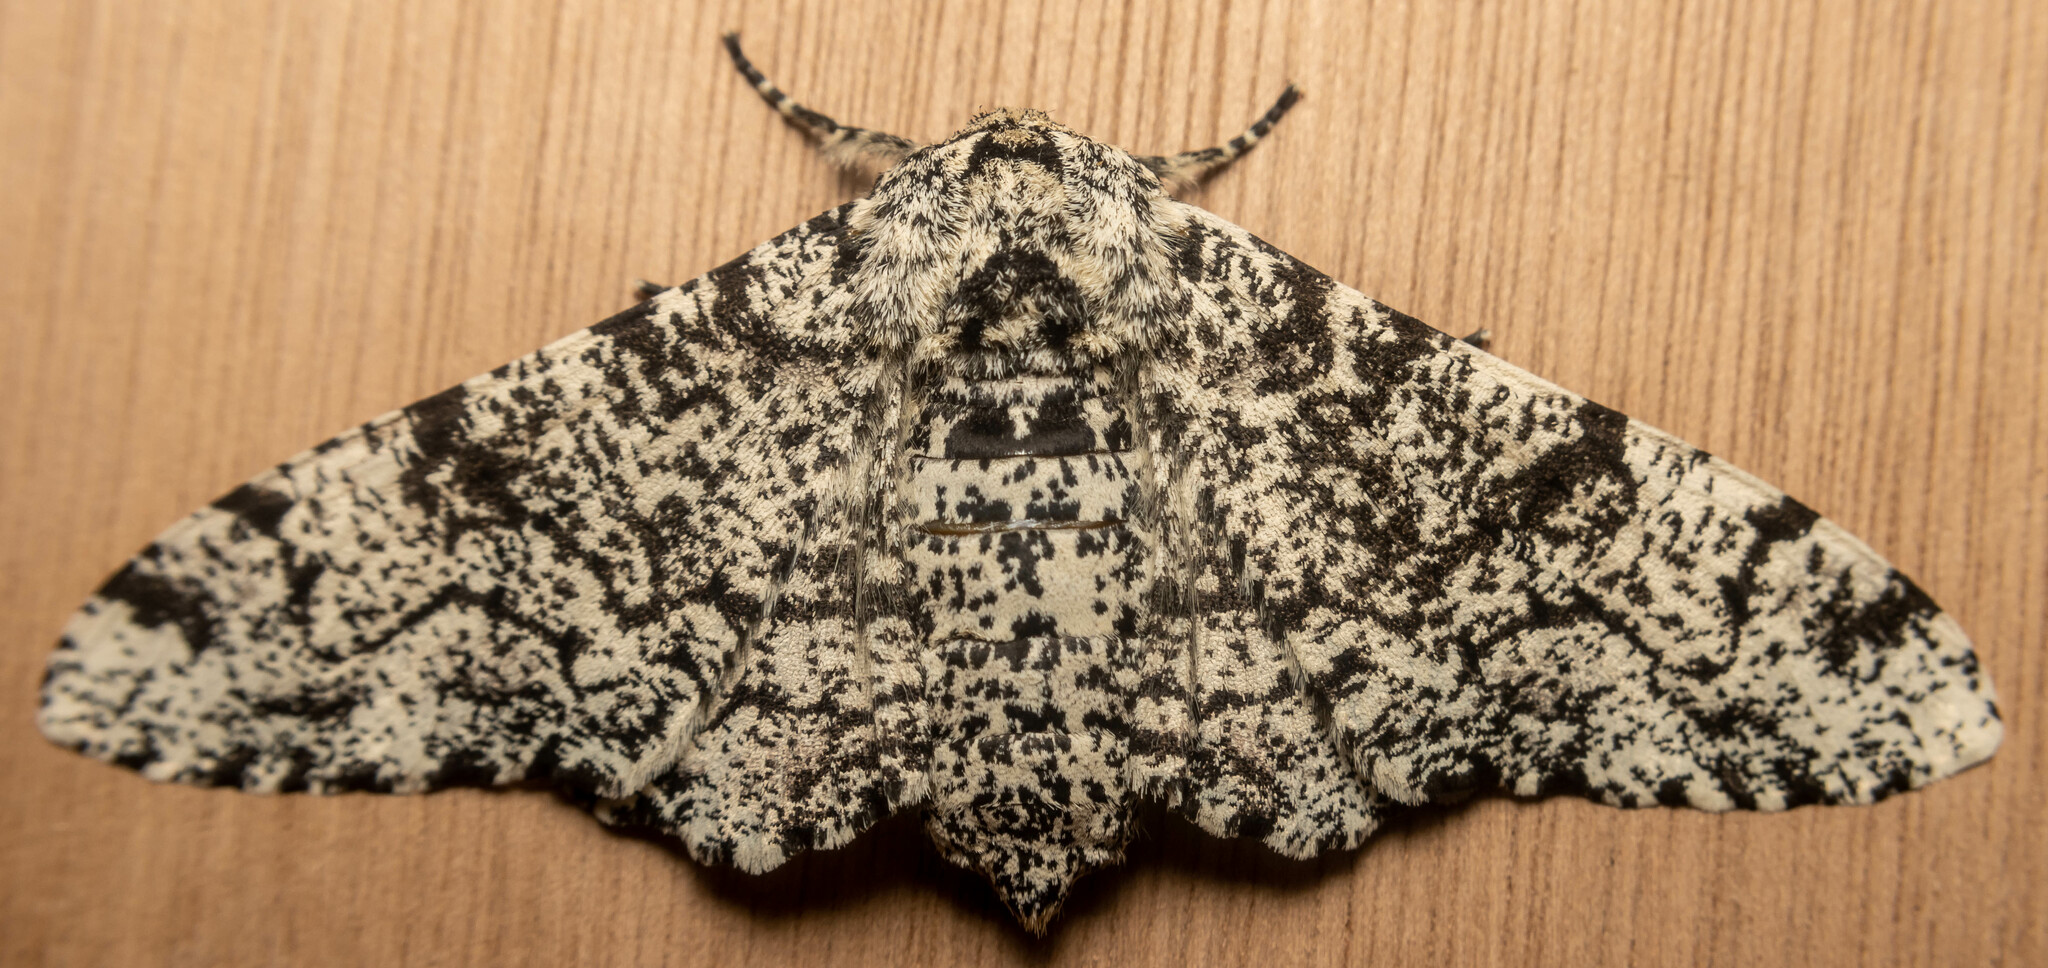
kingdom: Animalia
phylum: Arthropoda
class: Insecta
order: Lepidoptera
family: Geometridae
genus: Biston
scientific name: Biston betularia
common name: Peppered moth
